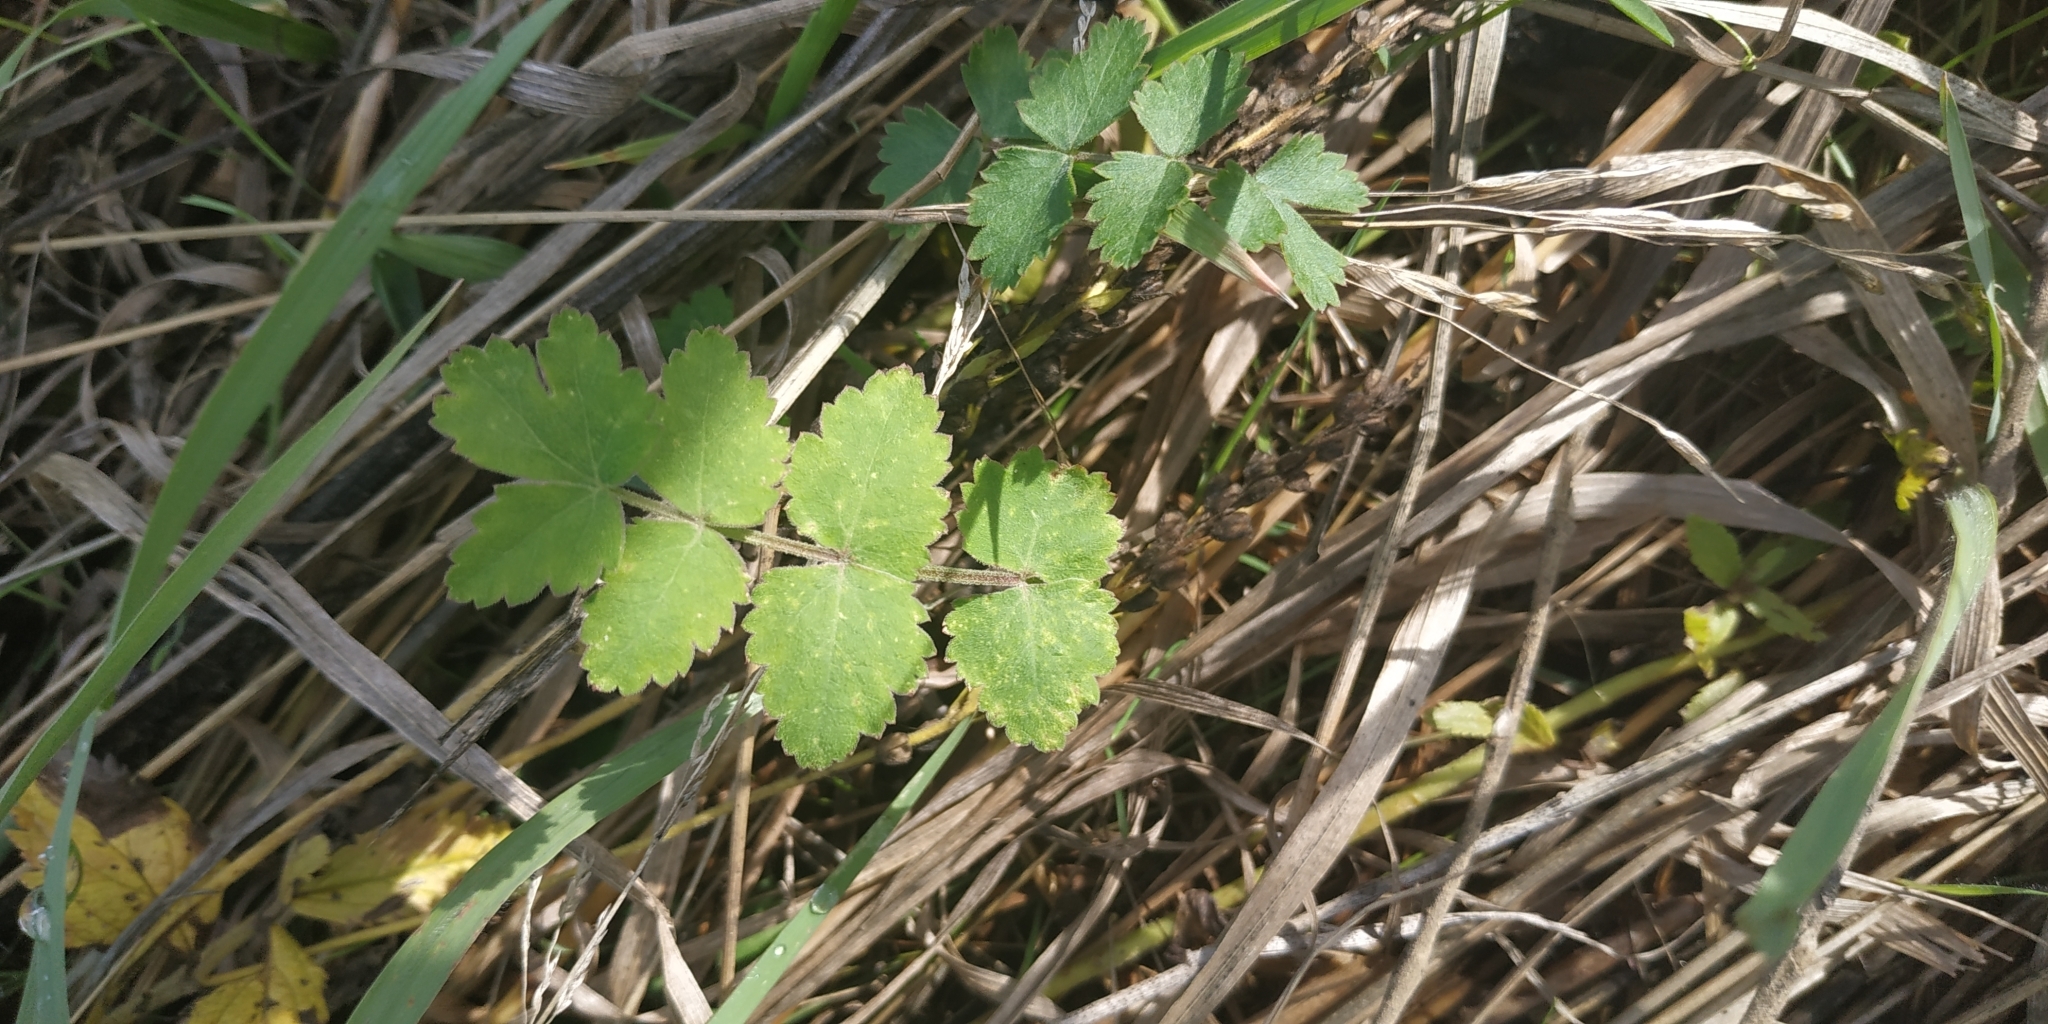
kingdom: Plantae
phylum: Tracheophyta
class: Magnoliopsida
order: Apiales
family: Apiaceae
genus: Pimpinella
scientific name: Pimpinella saxifraga
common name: Burnet-saxifrage
